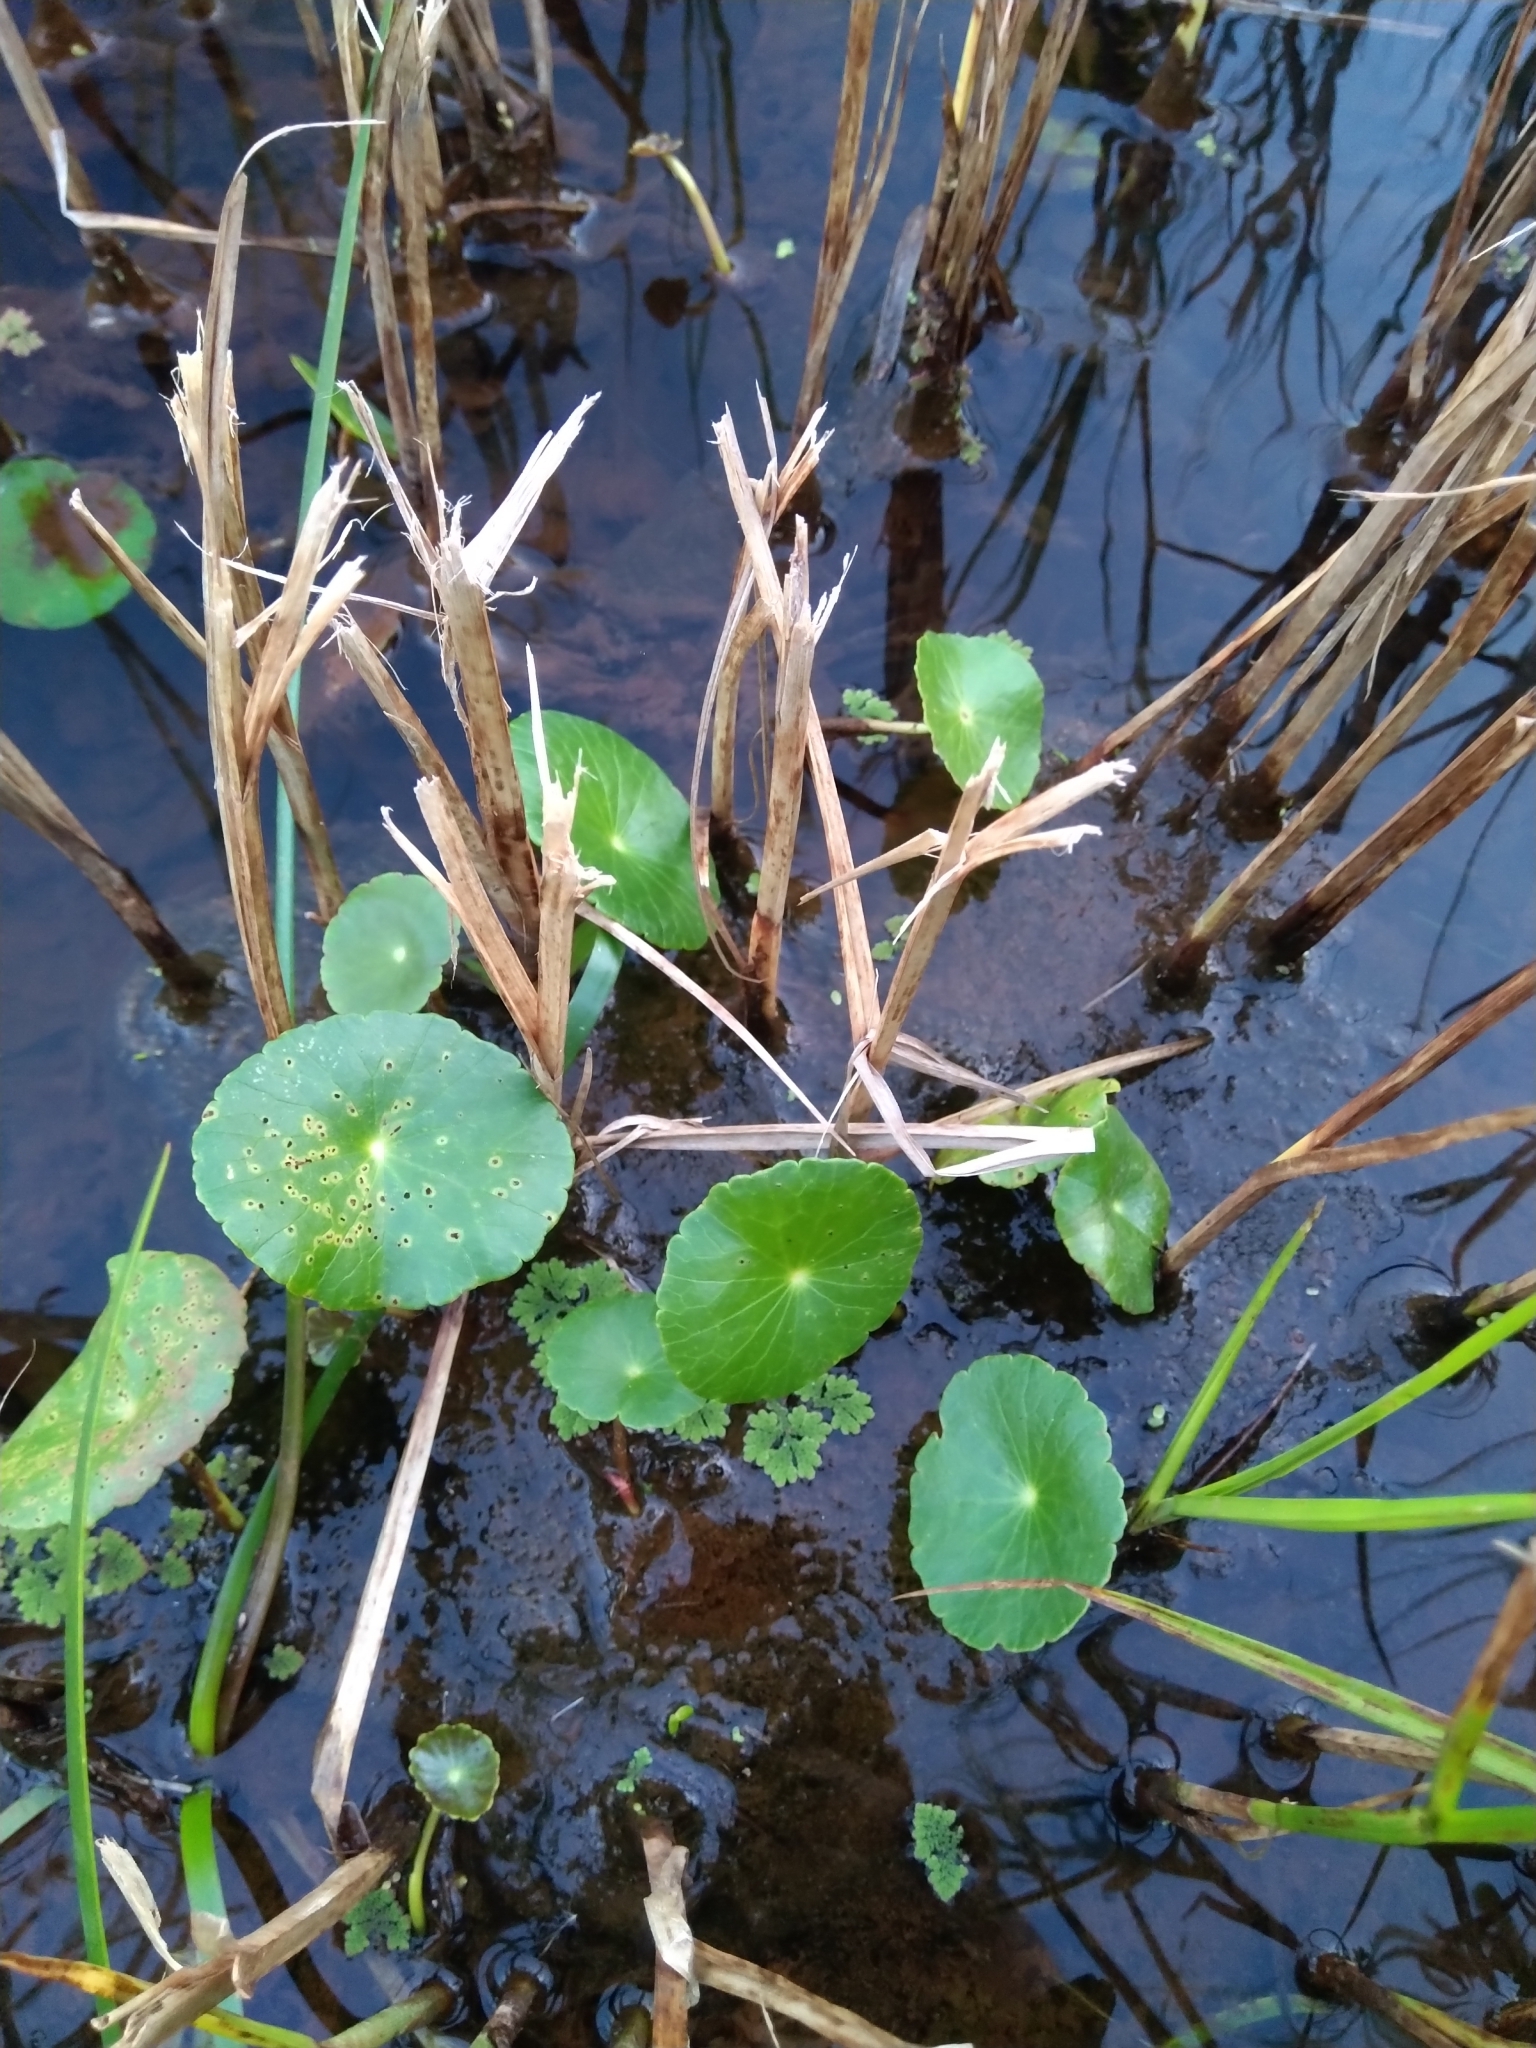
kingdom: Plantae
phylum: Tracheophyta
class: Magnoliopsida
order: Apiales
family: Araliaceae
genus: Hydrocotyle
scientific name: Hydrocotyle bonariensis
